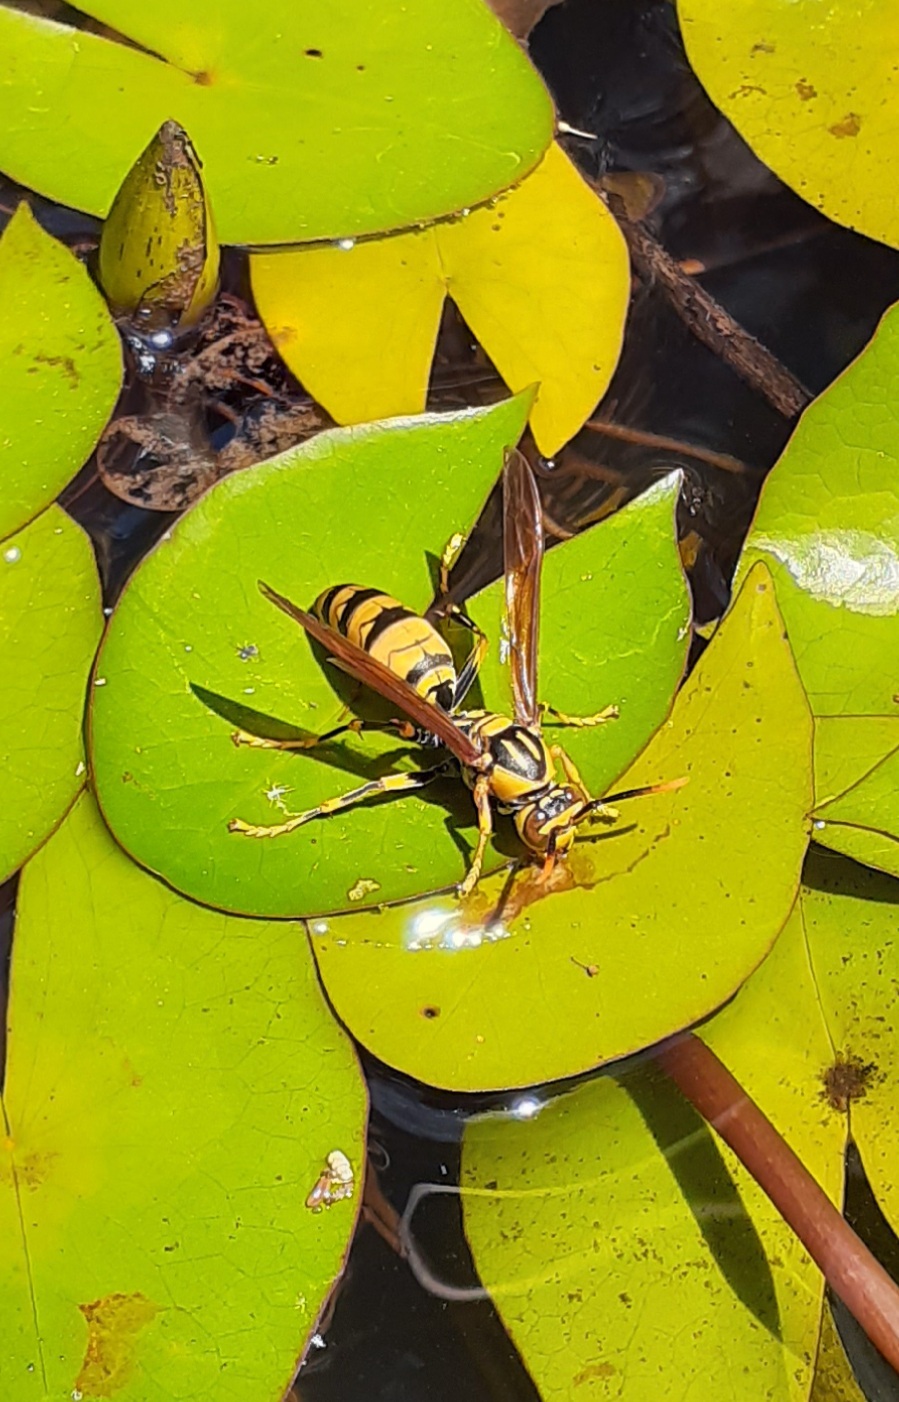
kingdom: Animalia
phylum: Arthropoda
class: Insecta
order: Hymenoptera
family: Eumenidae
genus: Polistes
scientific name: Polistes rothneyi
